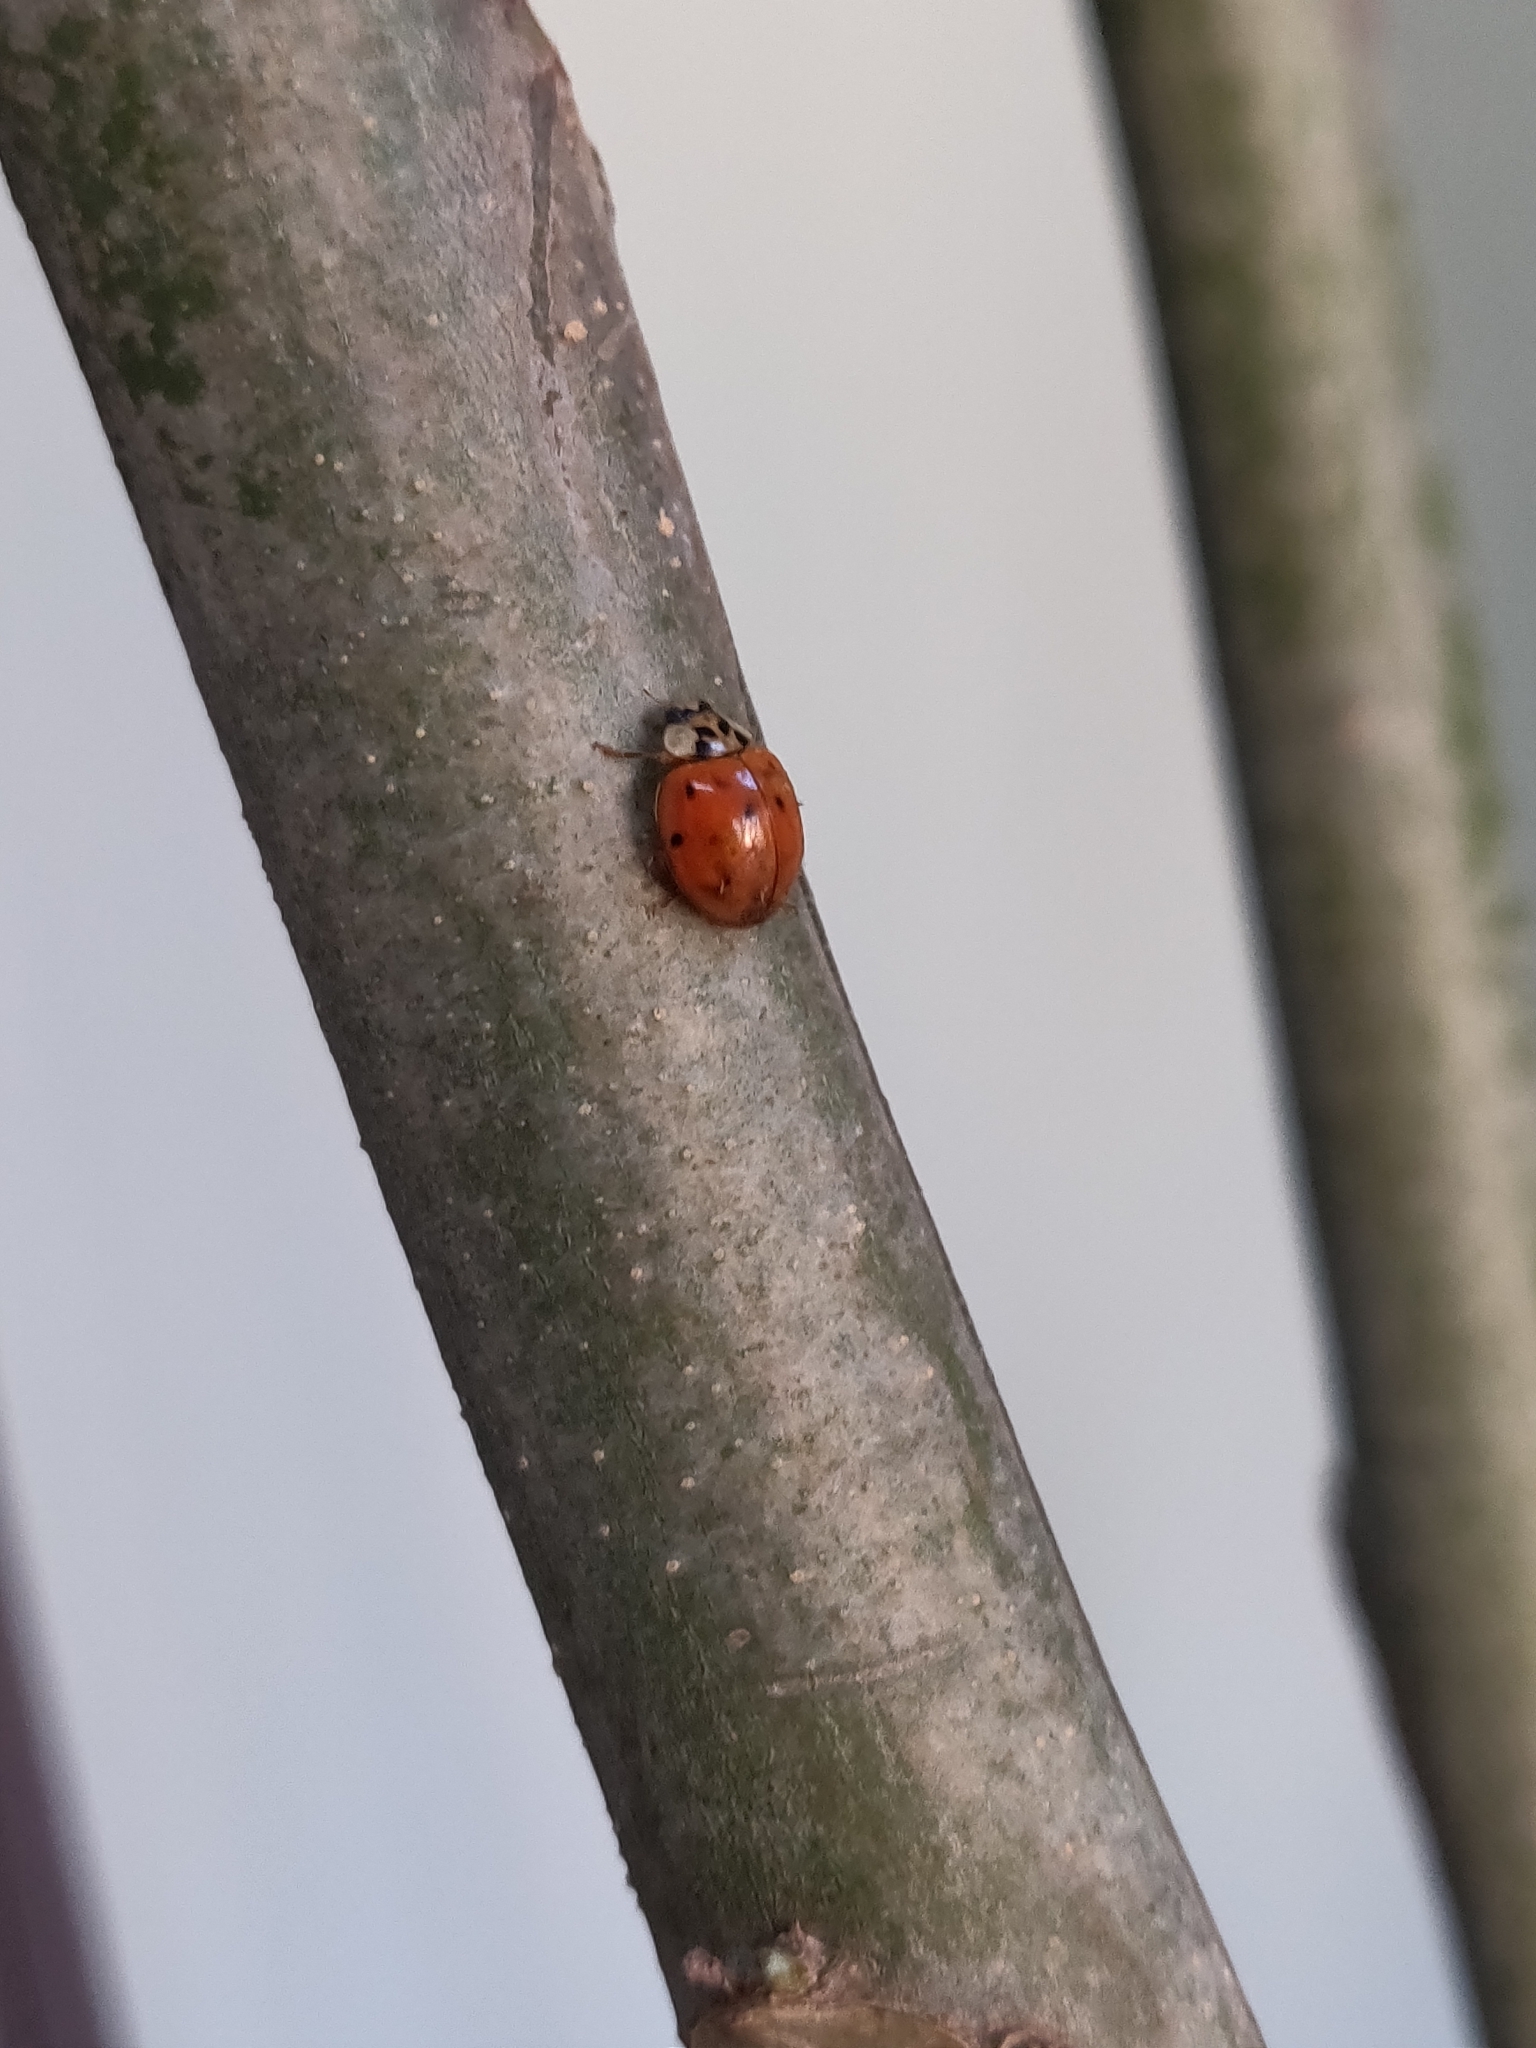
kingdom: Animalia
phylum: Arthropoda
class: Insecta
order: Coleoptera
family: Coccinellidae
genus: Harmonia
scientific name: Harmonia axyridis
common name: Harlequin ladybird
